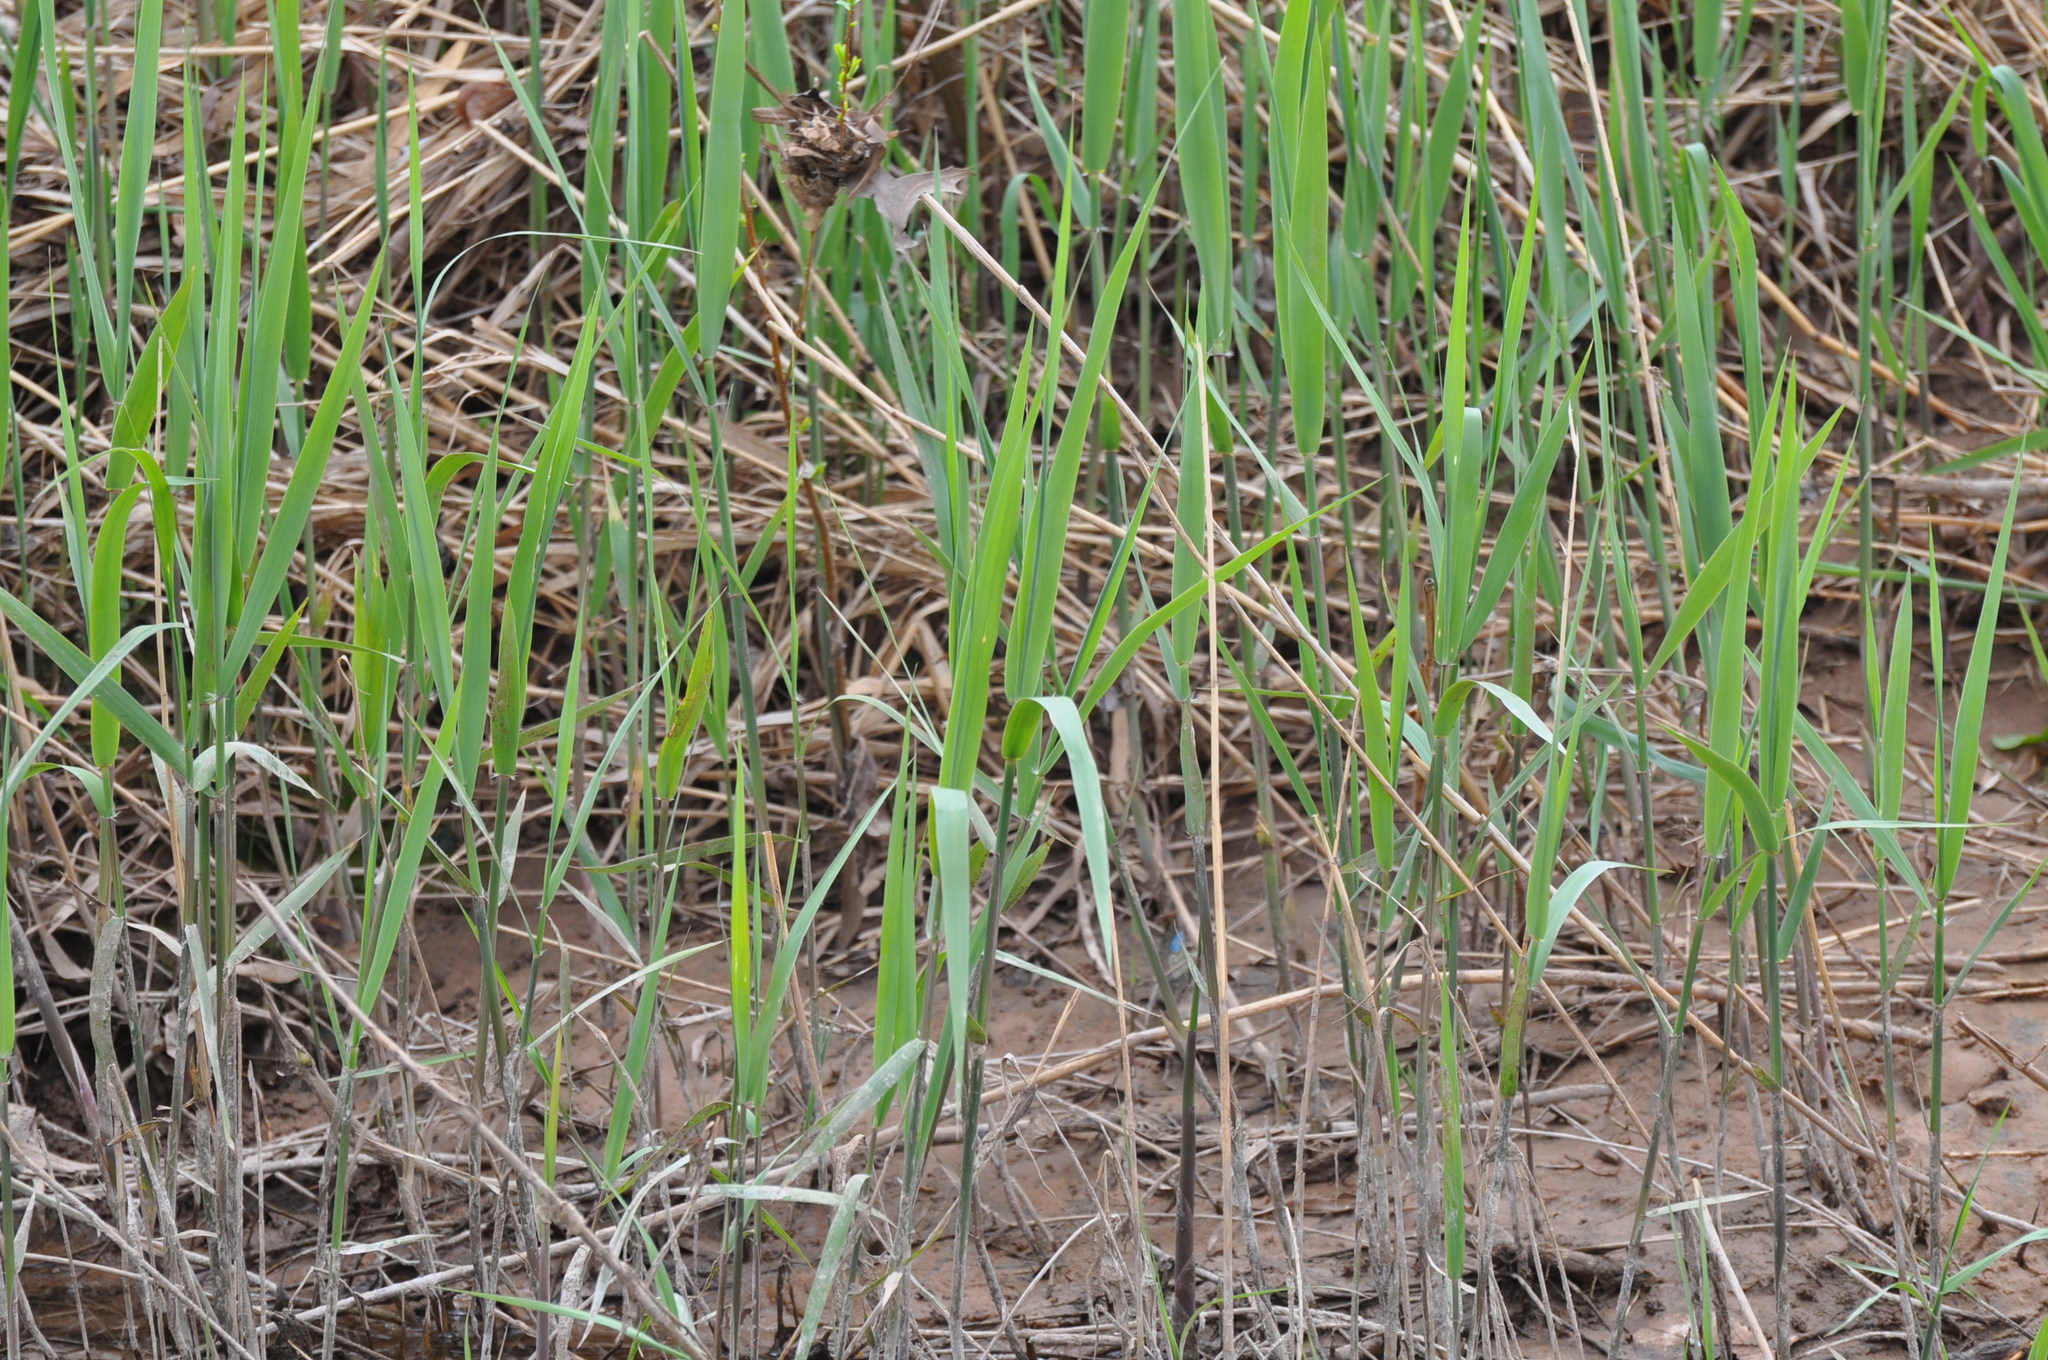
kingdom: Plantae
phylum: Tracheophyta
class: Liliopsida
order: Poales
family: Poaceae
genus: Phragmites
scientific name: Phragmites australis
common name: Common reed
